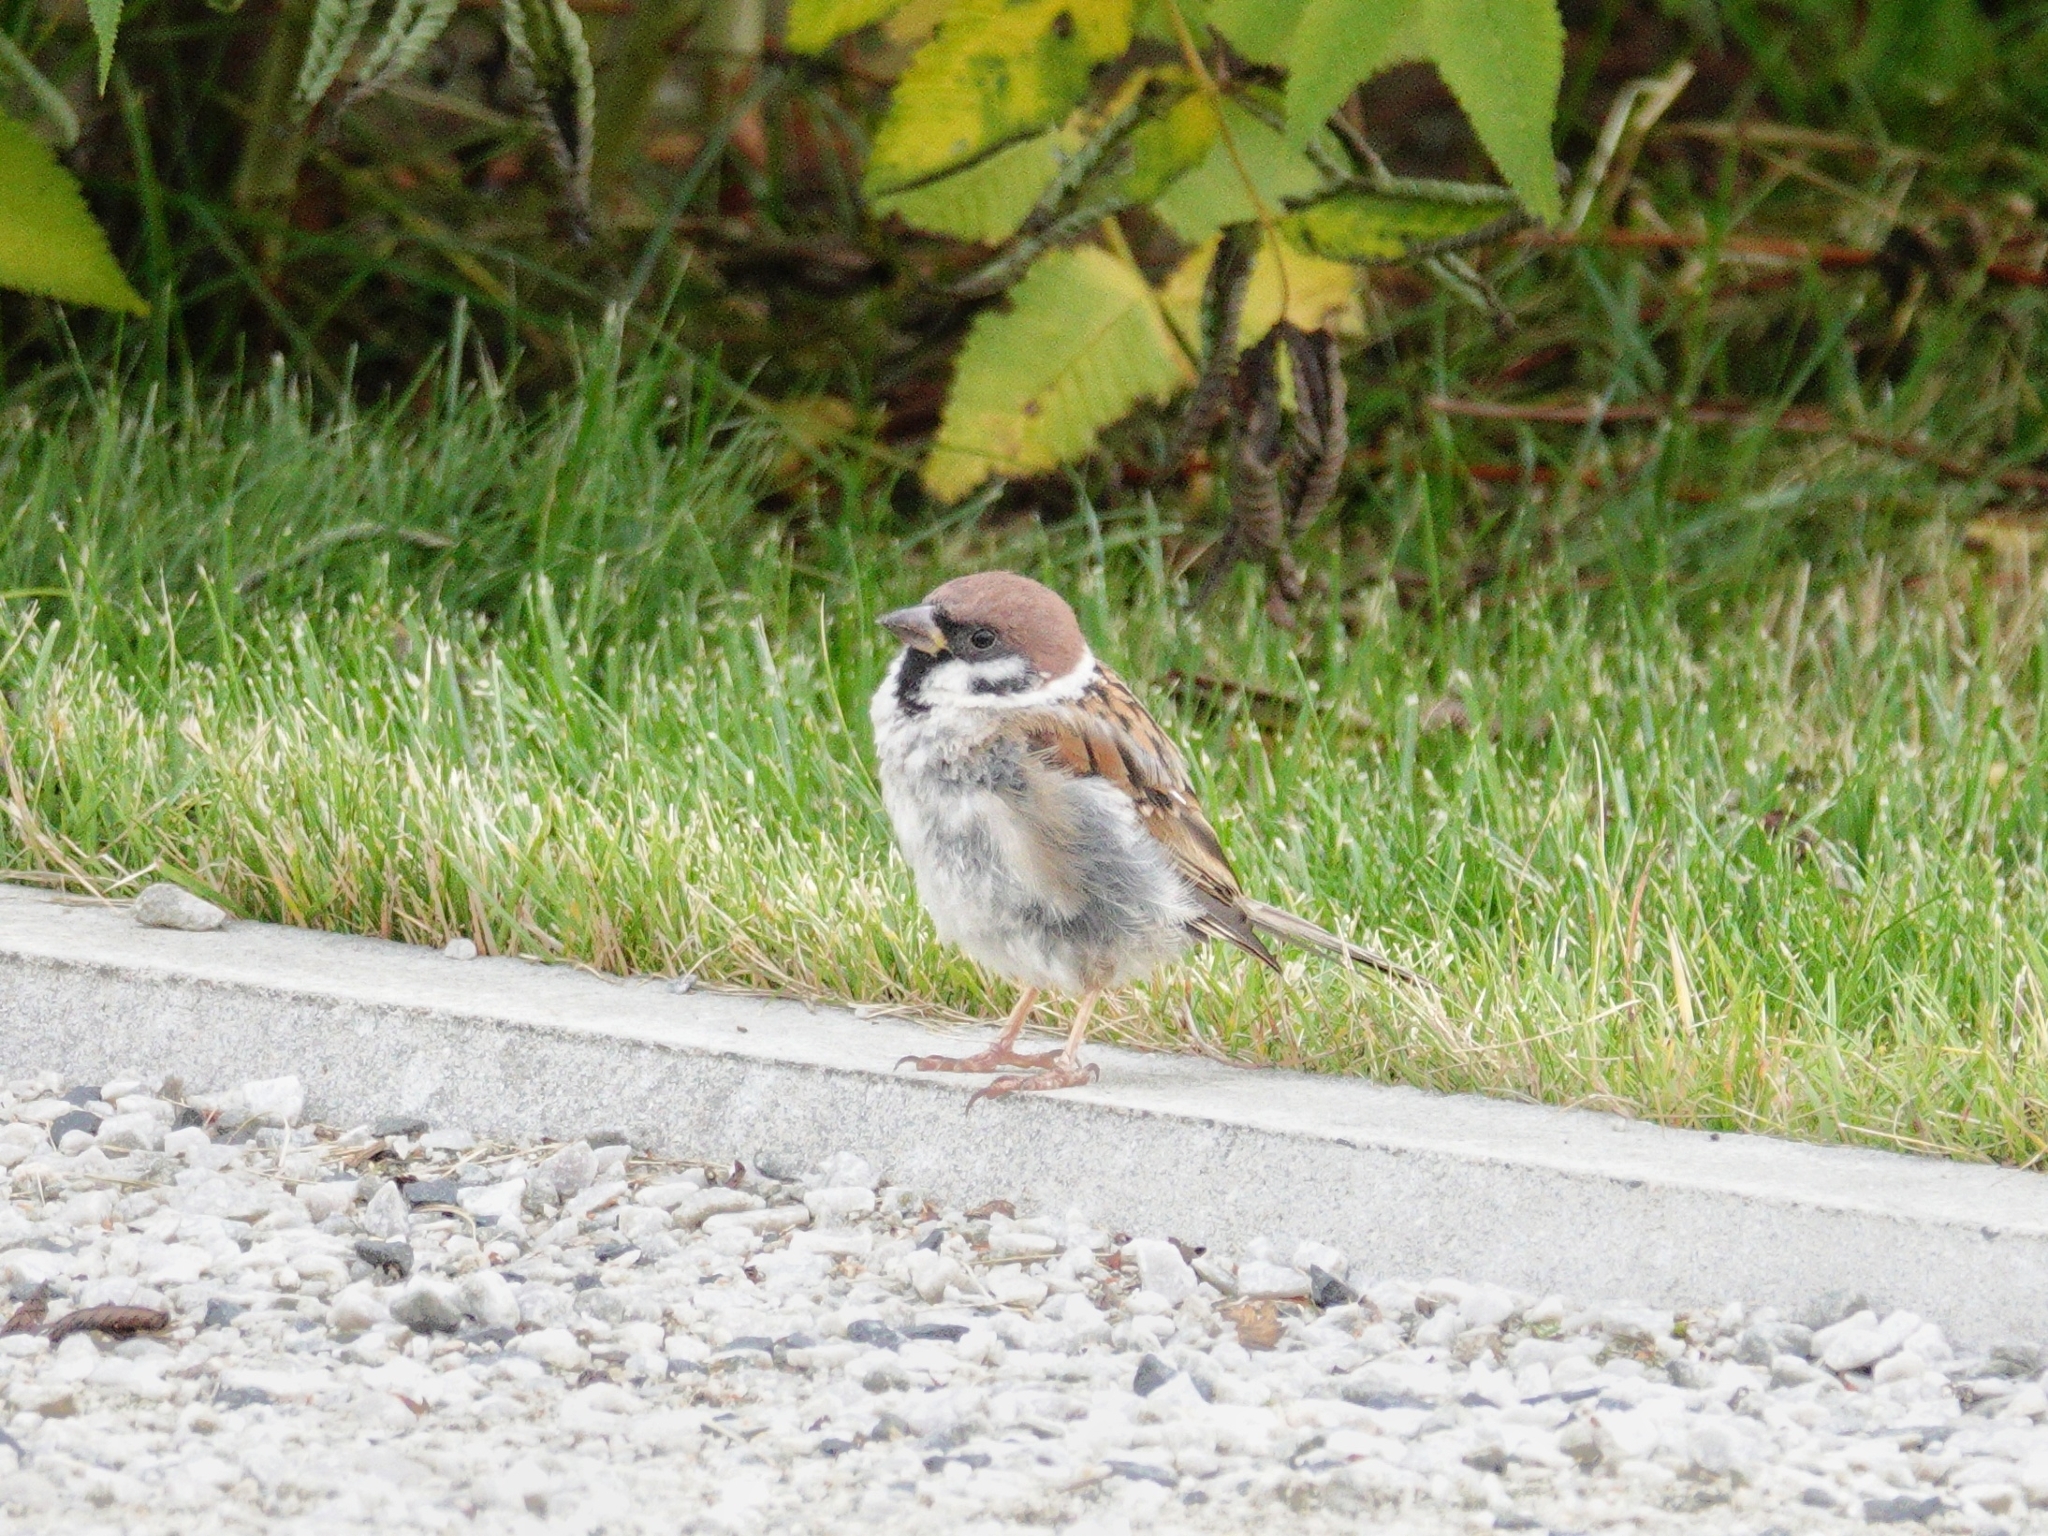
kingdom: Animalia
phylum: Chordata
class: Aves
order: Passeriformes
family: Passeridae
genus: Passer
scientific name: Passer montanus
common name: Eurasian tree sparrow
